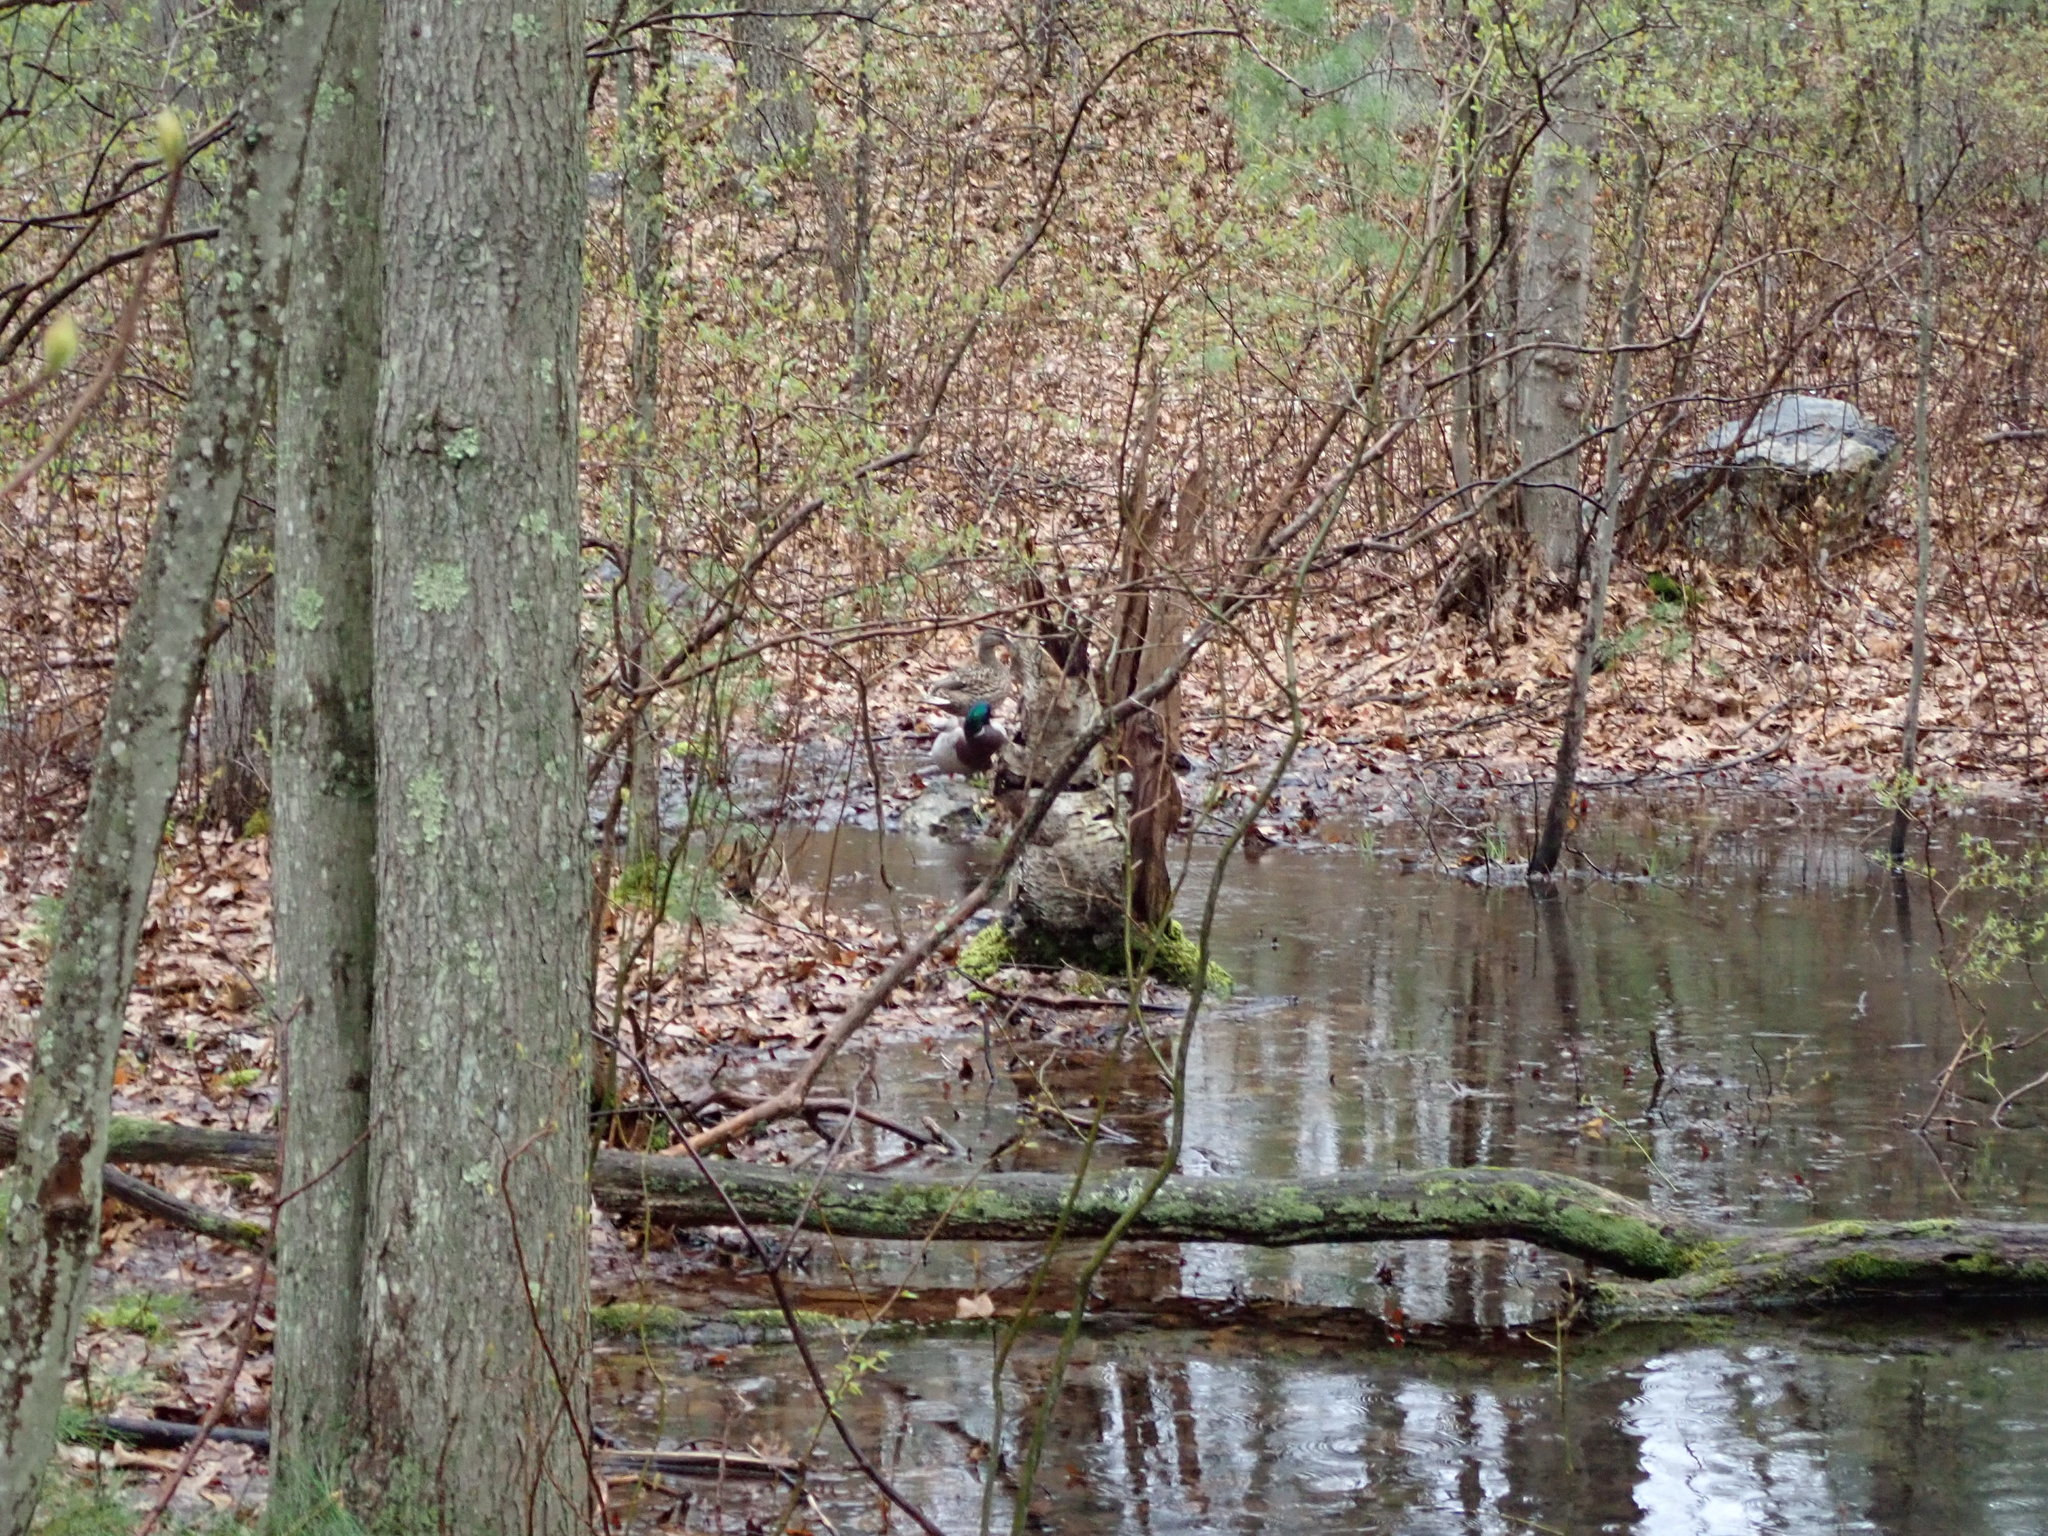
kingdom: Animalia
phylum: Chordata
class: Aves
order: Anseriformes
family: Anatidae
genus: Anas
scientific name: Anas platyrhynchos
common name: Mallard
